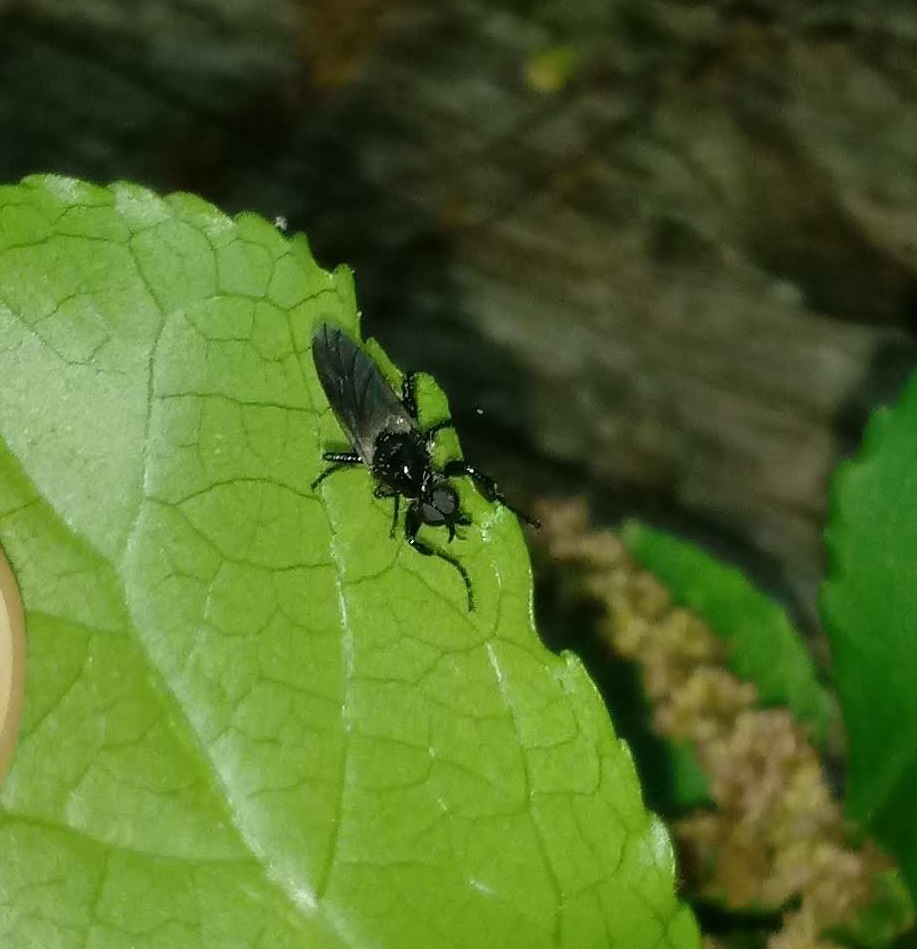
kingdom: Animalia
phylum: Arthropoda
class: Insecta
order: Diptera
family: Bibionidae
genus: Bibio
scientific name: Bibio albipennis
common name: White-winged march fly
